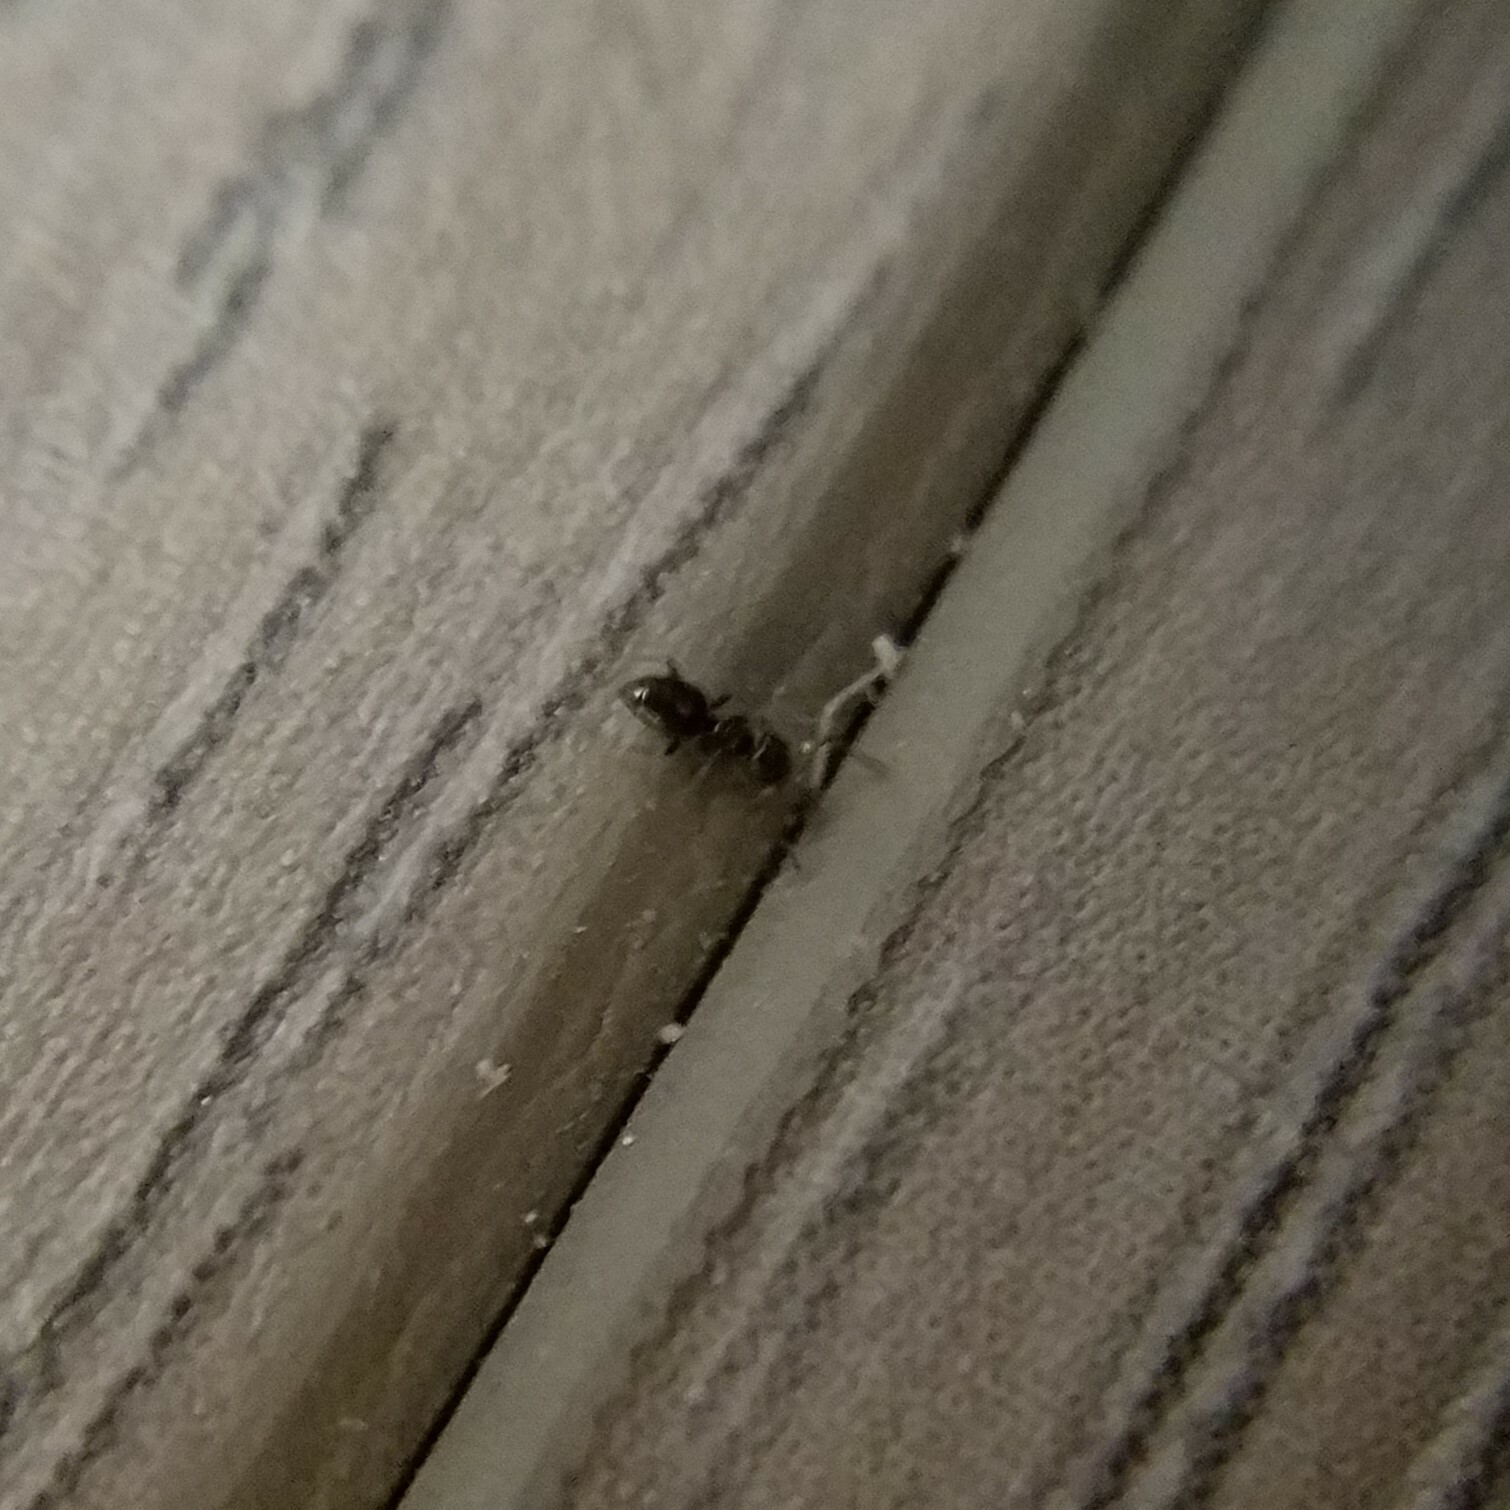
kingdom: Animalia
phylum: Arthropoda
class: Insecta
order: Hymenoptera
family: Formicidae
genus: Brachymyrmex
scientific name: Brachymyrmex patagonicus
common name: Dark rover ant
